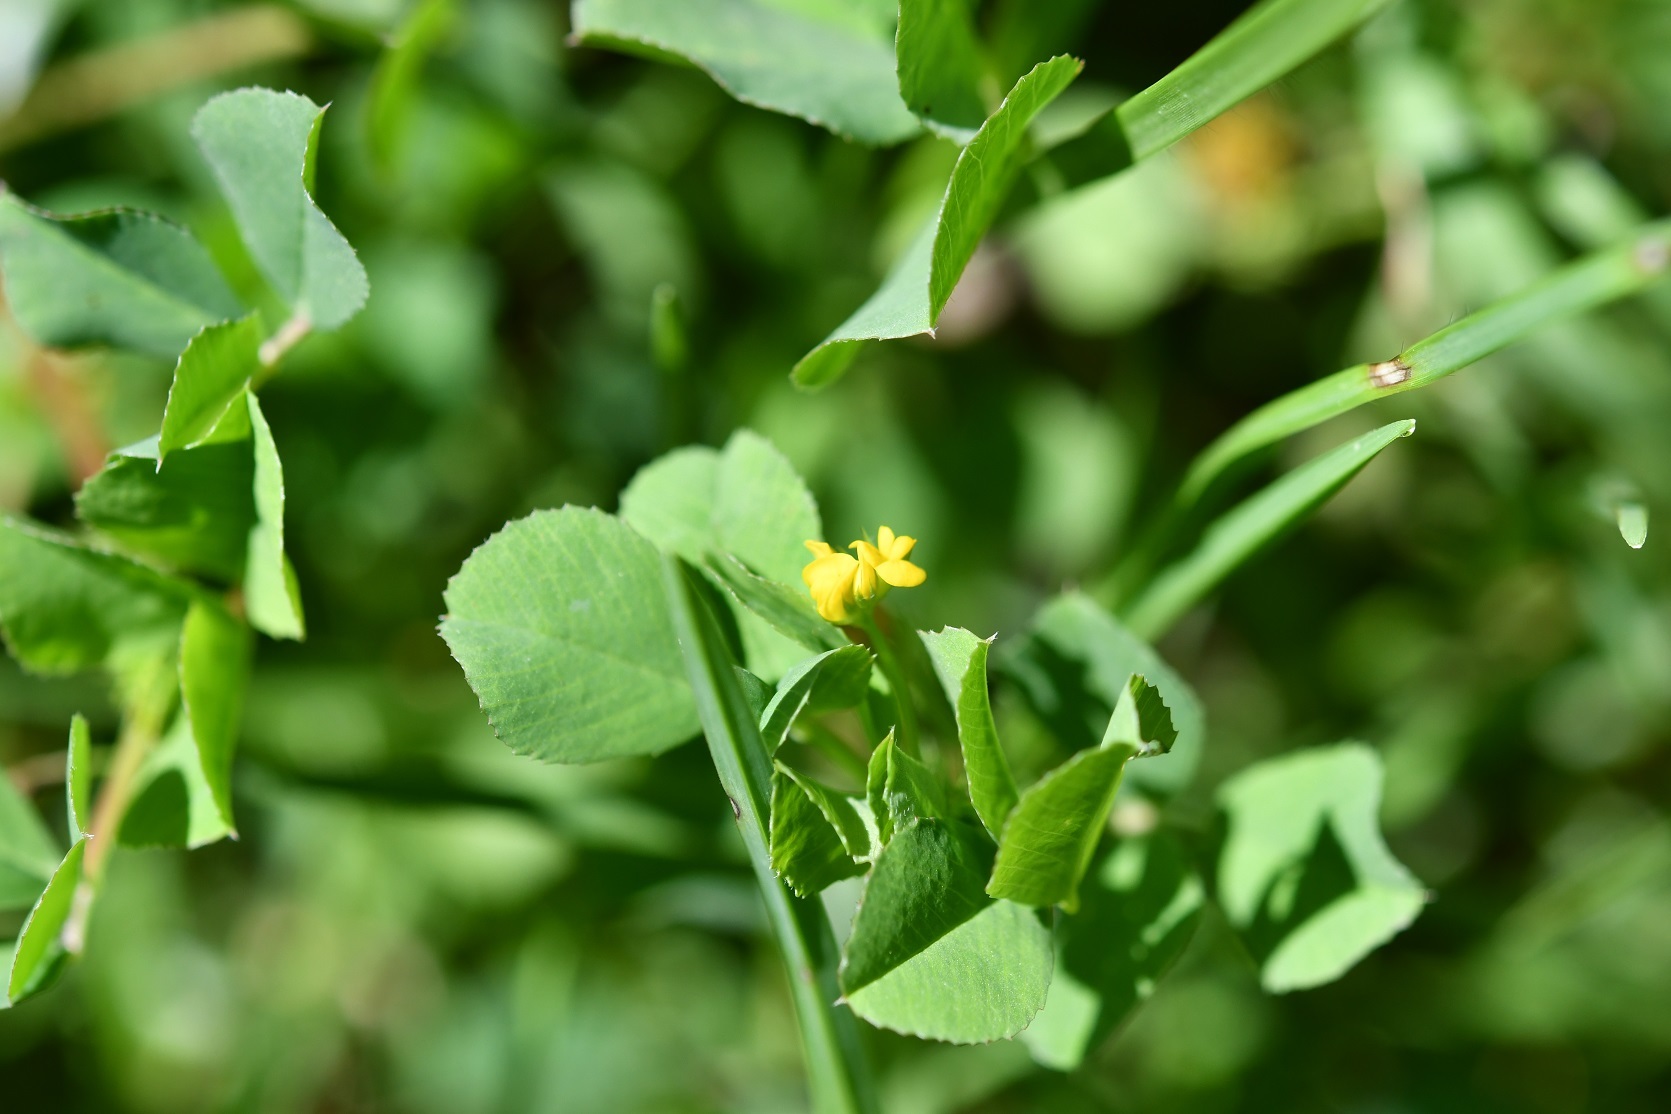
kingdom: Plantae
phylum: Tracheophyta
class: Magnoliopsida
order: Fabales
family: Fabaceae
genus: Medicago
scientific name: Medicago polymorpha
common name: Burclover
